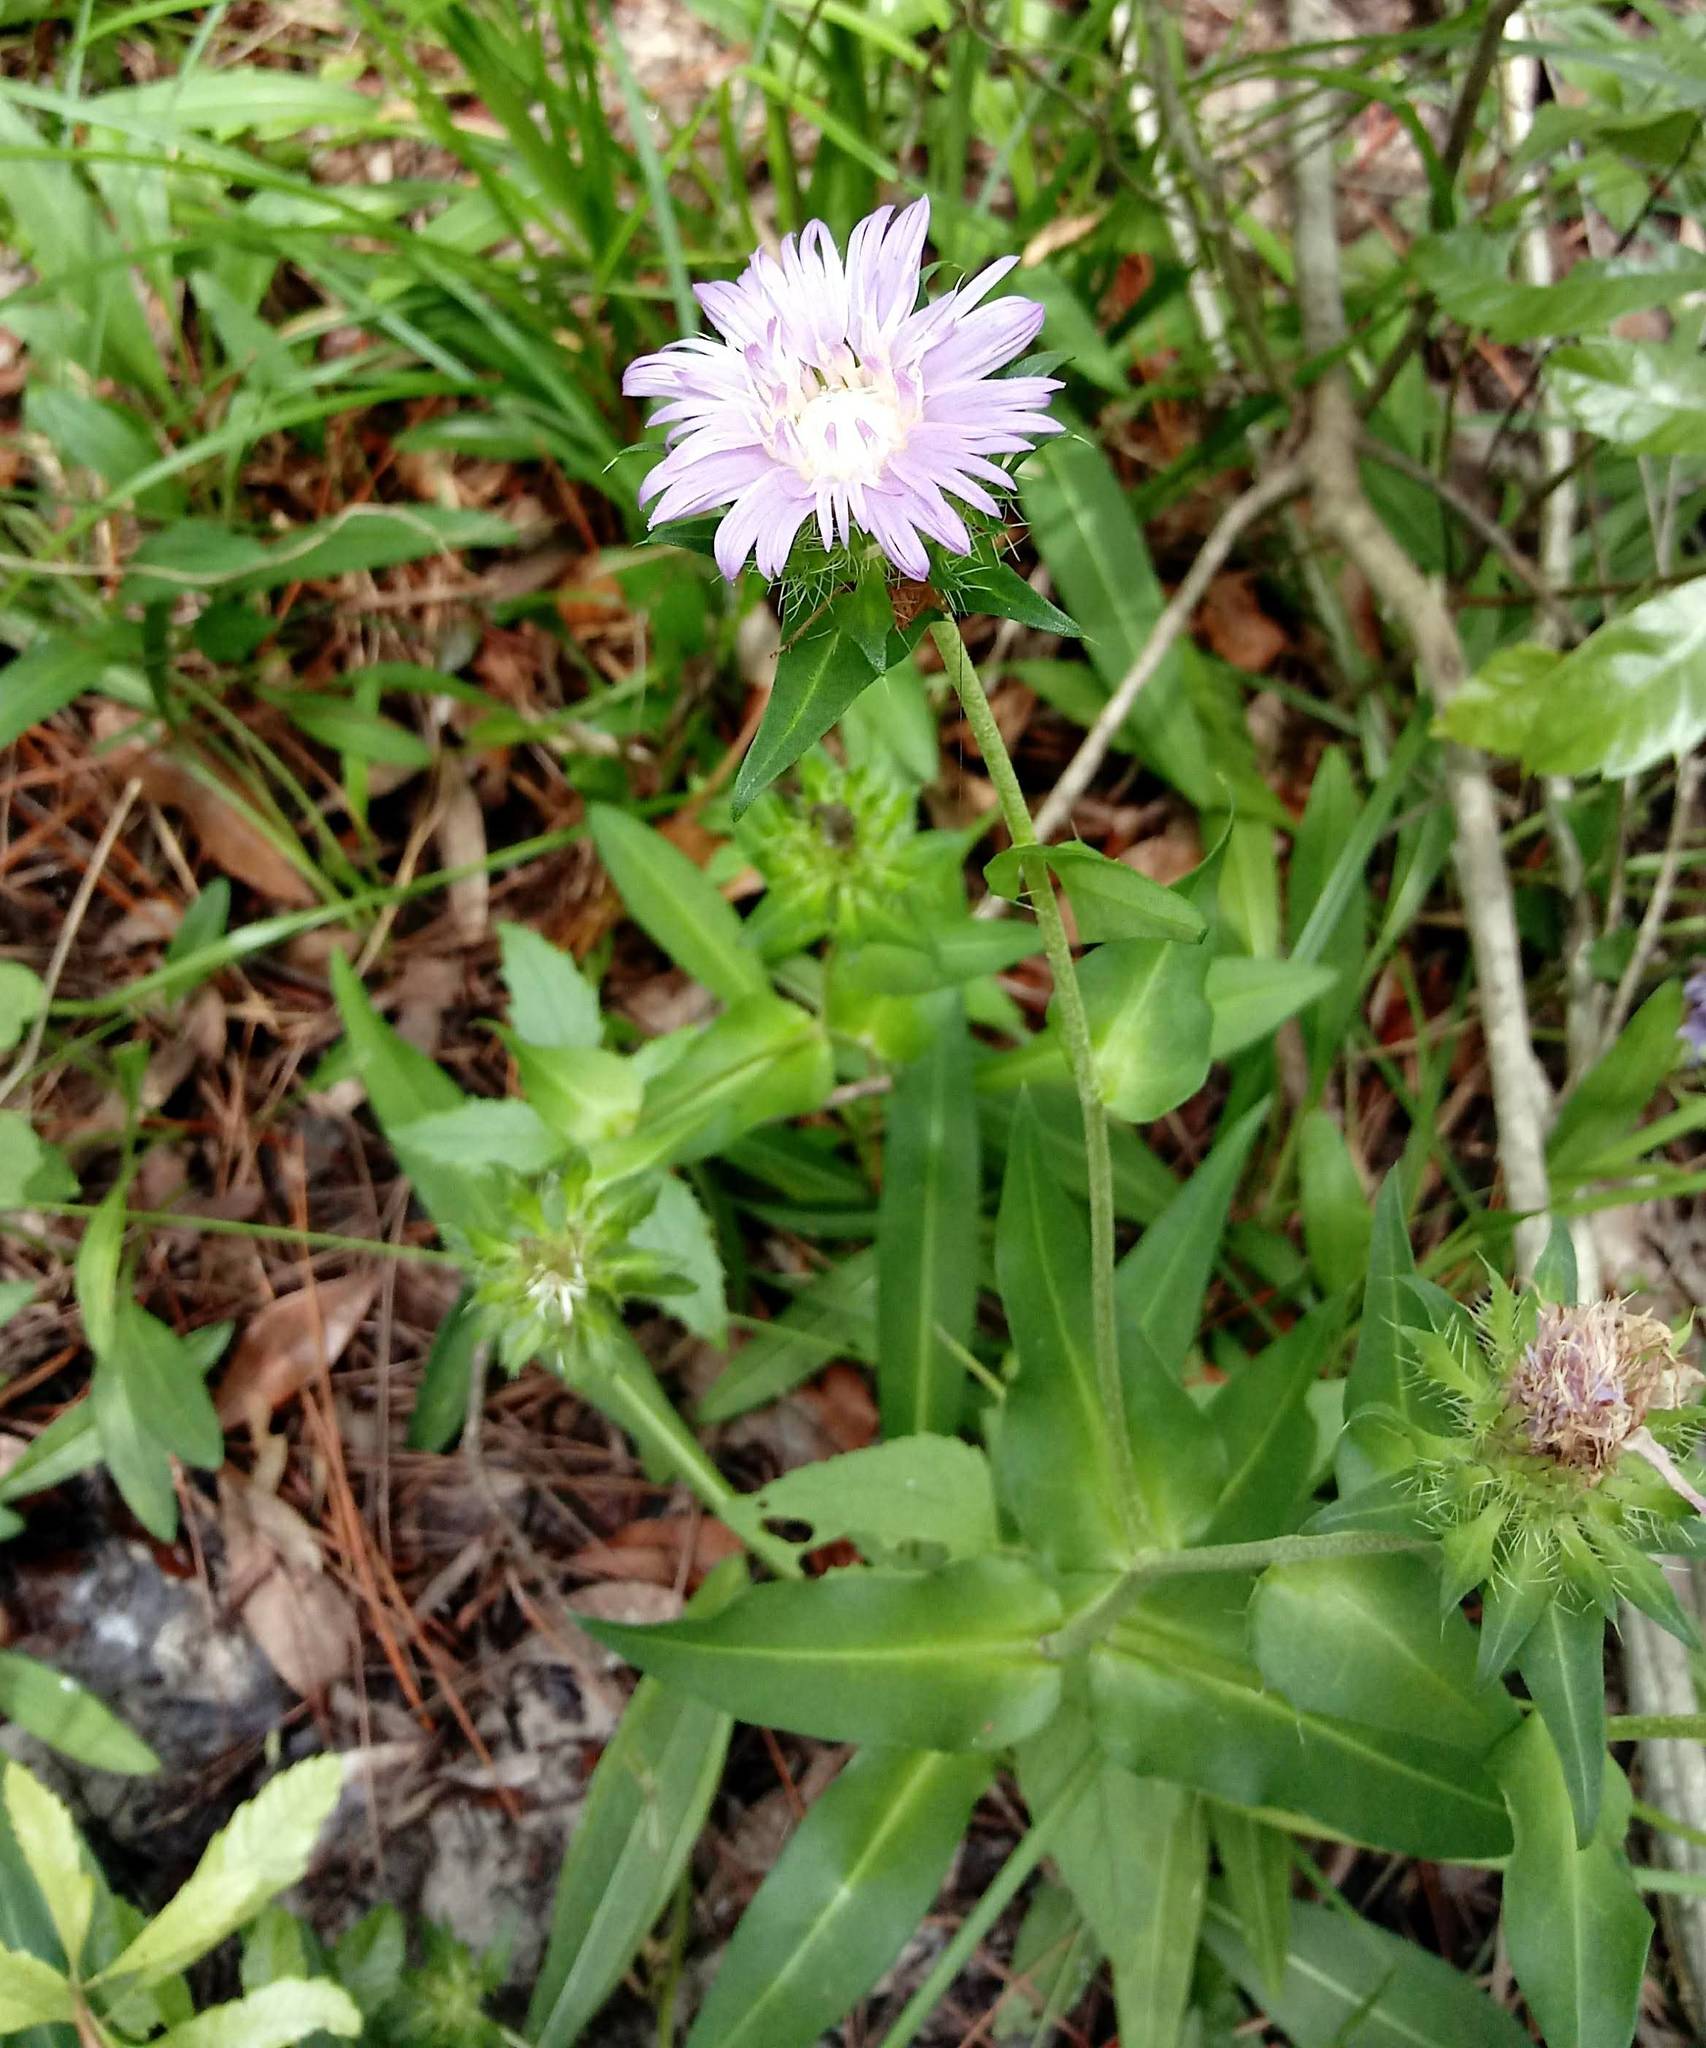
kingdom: Plantae
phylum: Tracheophyta
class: Magnoliopsida
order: Asterales
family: Asteraceae
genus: Stokesia
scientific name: Stokesia laevis
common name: Stokes'-aster
